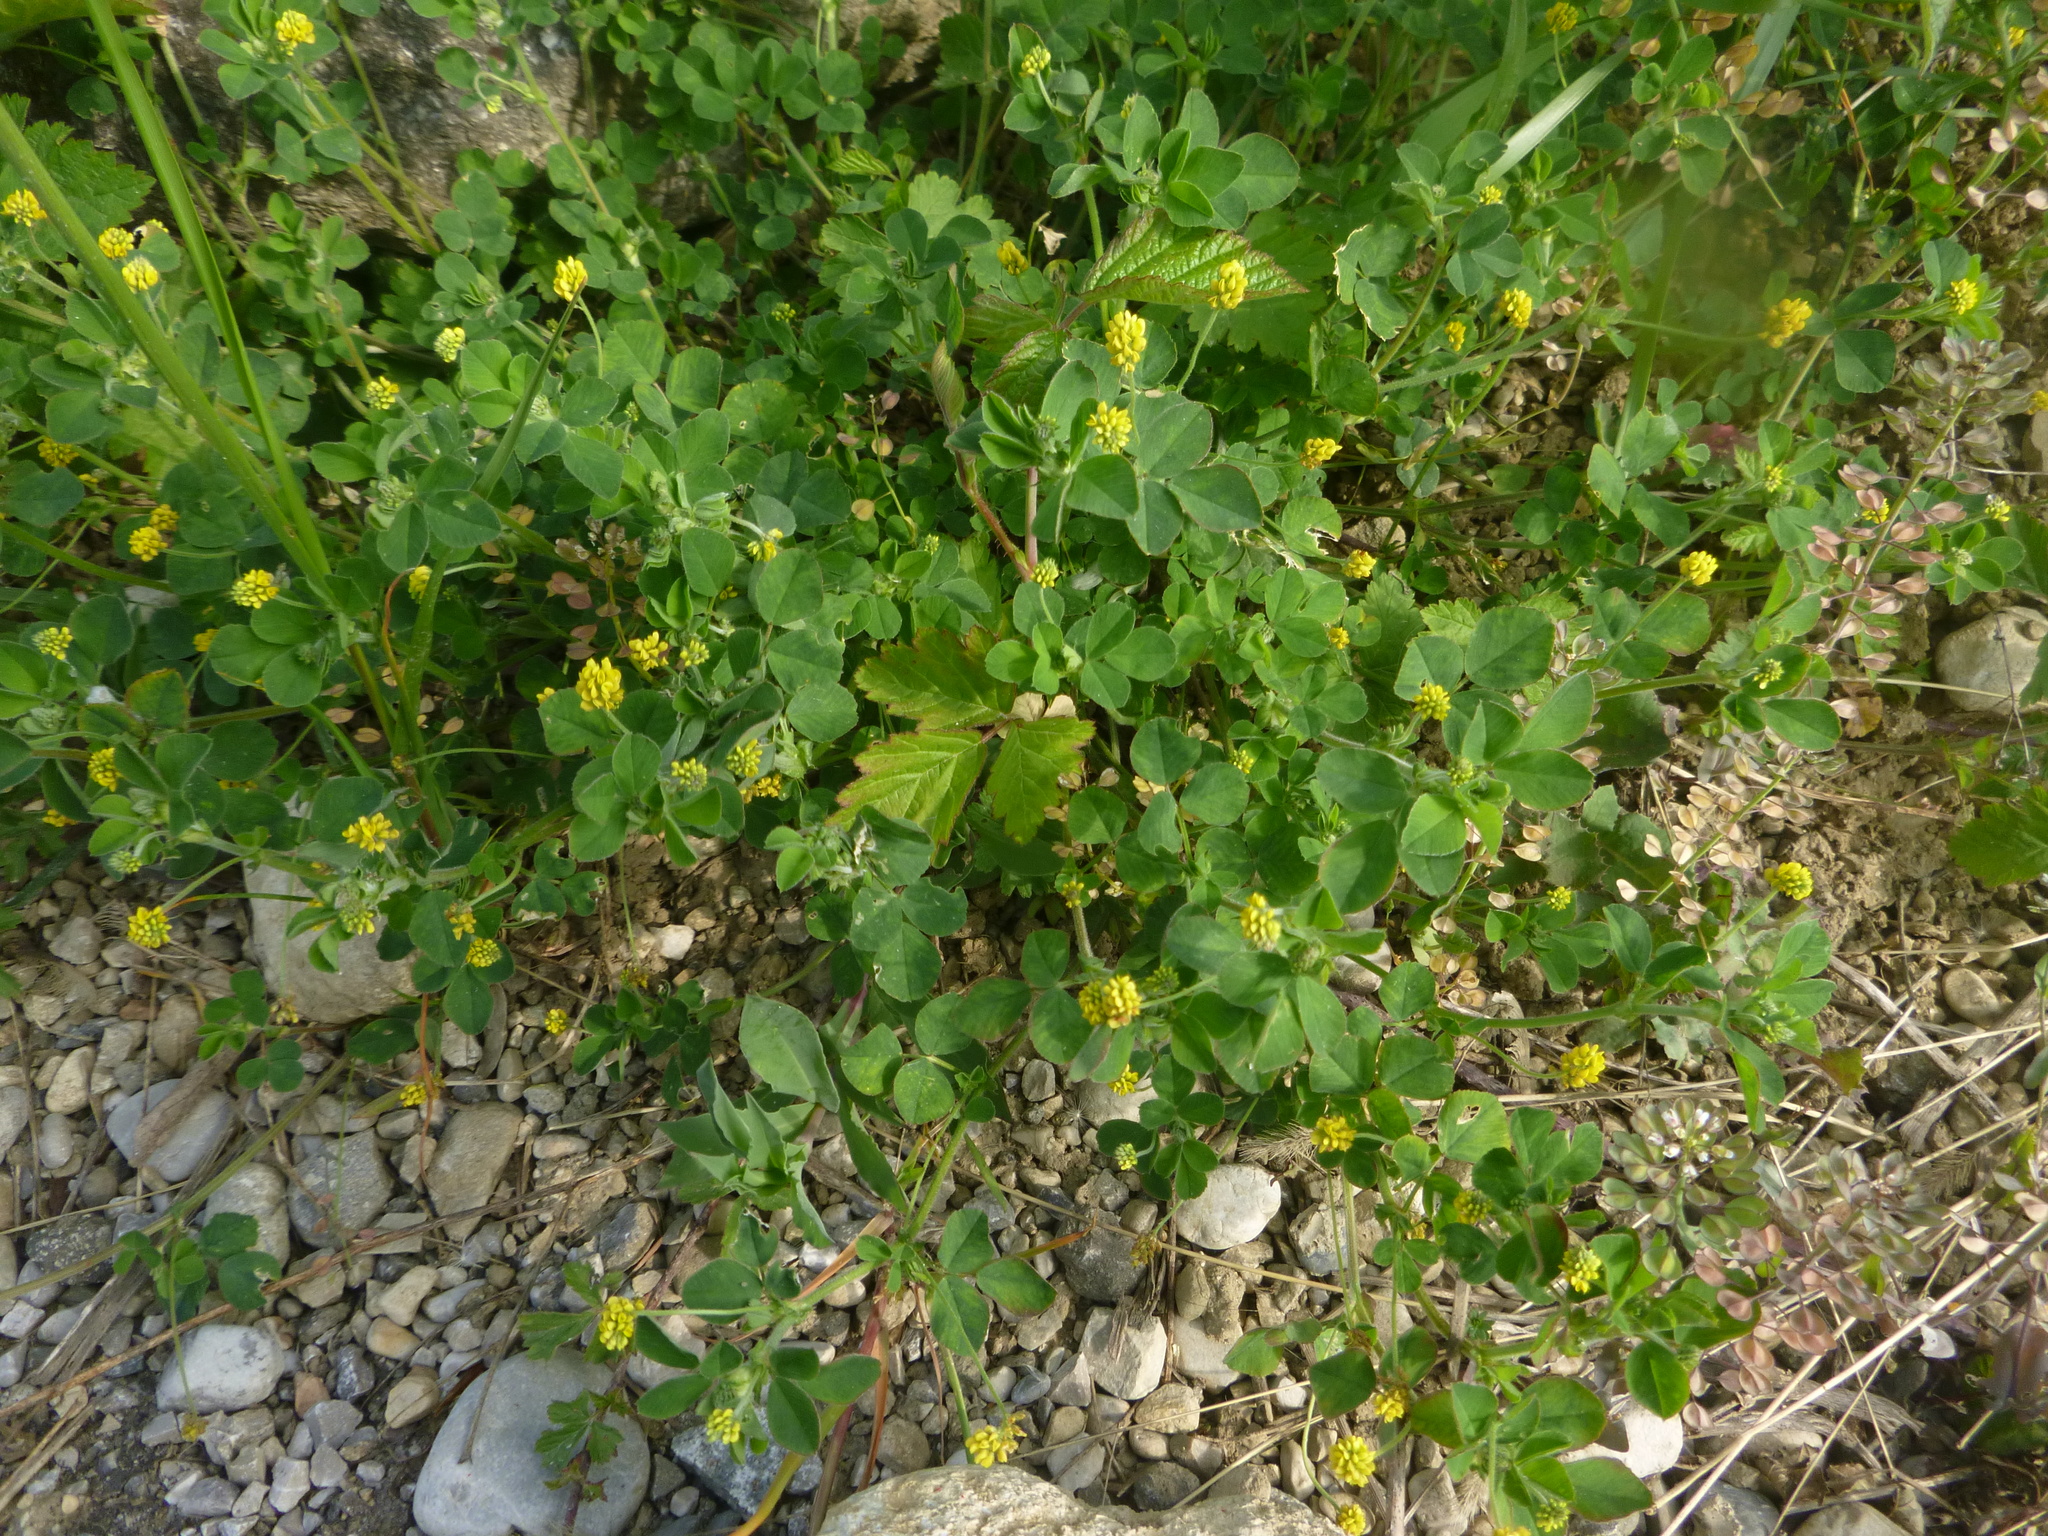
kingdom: Plantae
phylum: Tracheophyta
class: Magnoliopsida
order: Fabales
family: Fabaceae
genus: Medicago
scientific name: Medicago lupulina
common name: Black medick
